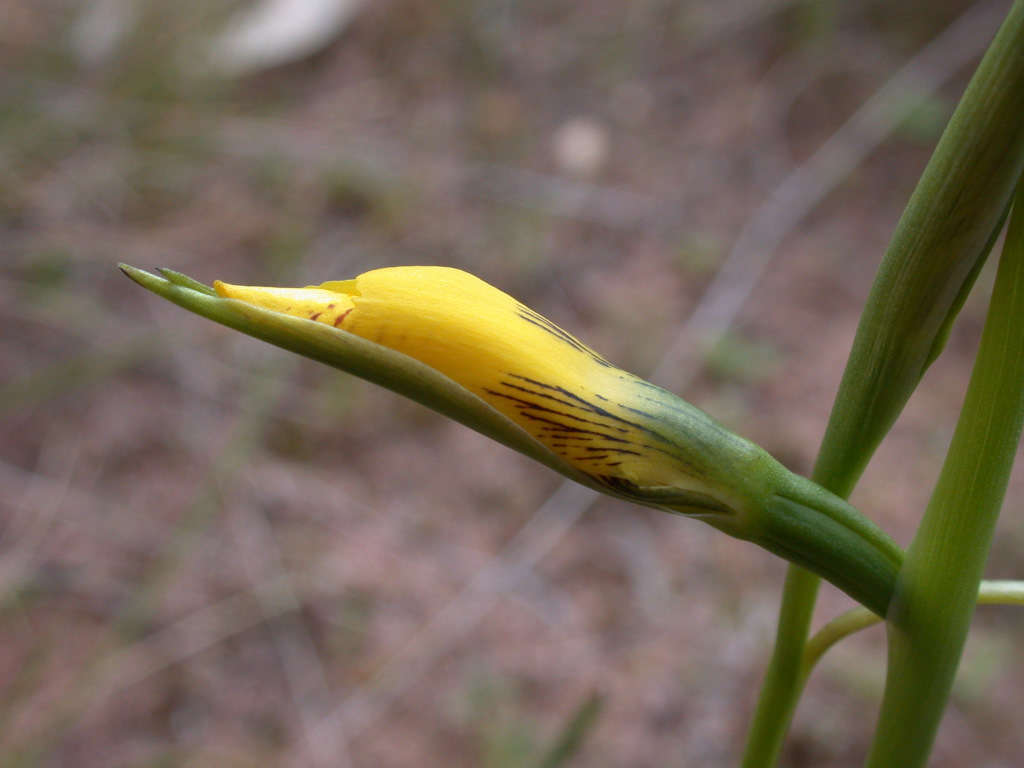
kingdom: Plantae
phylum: Tracheophyta
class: Liliopsida
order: Asparagales
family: Orchidaceae
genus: Diuris
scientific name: Diuris chryseopsis
